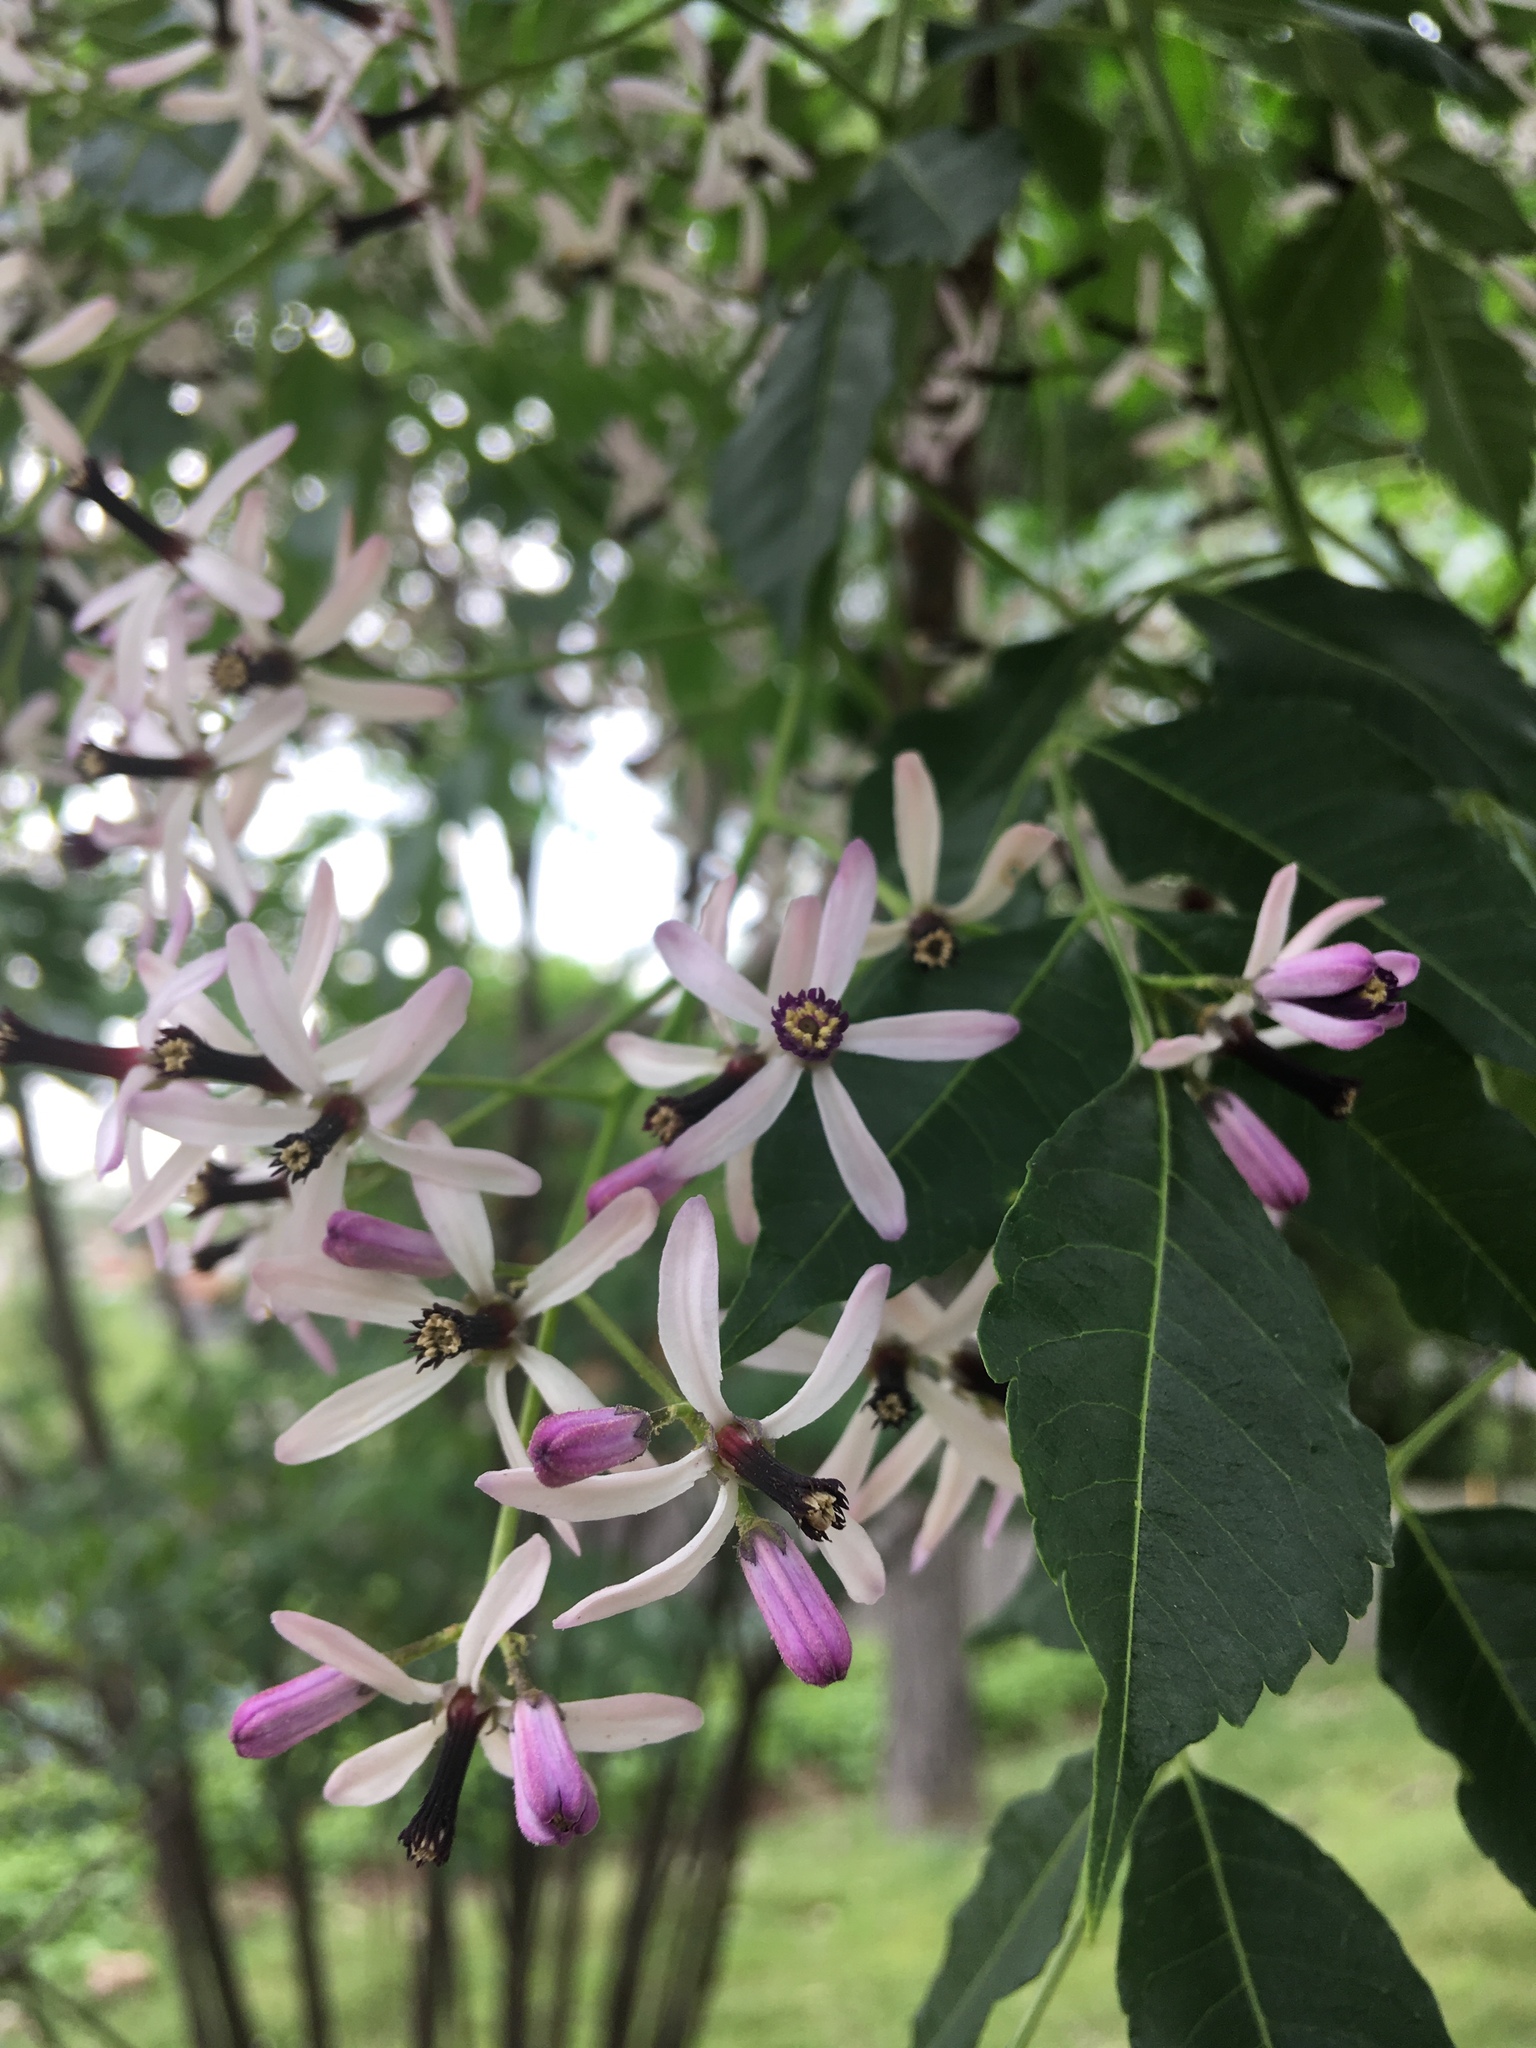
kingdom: Plantae
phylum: Tracheophyta
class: Magnoliopsida
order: Sapindales
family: Meliaceae
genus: Melia
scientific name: Melia azedarach
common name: Chinaberrytree
